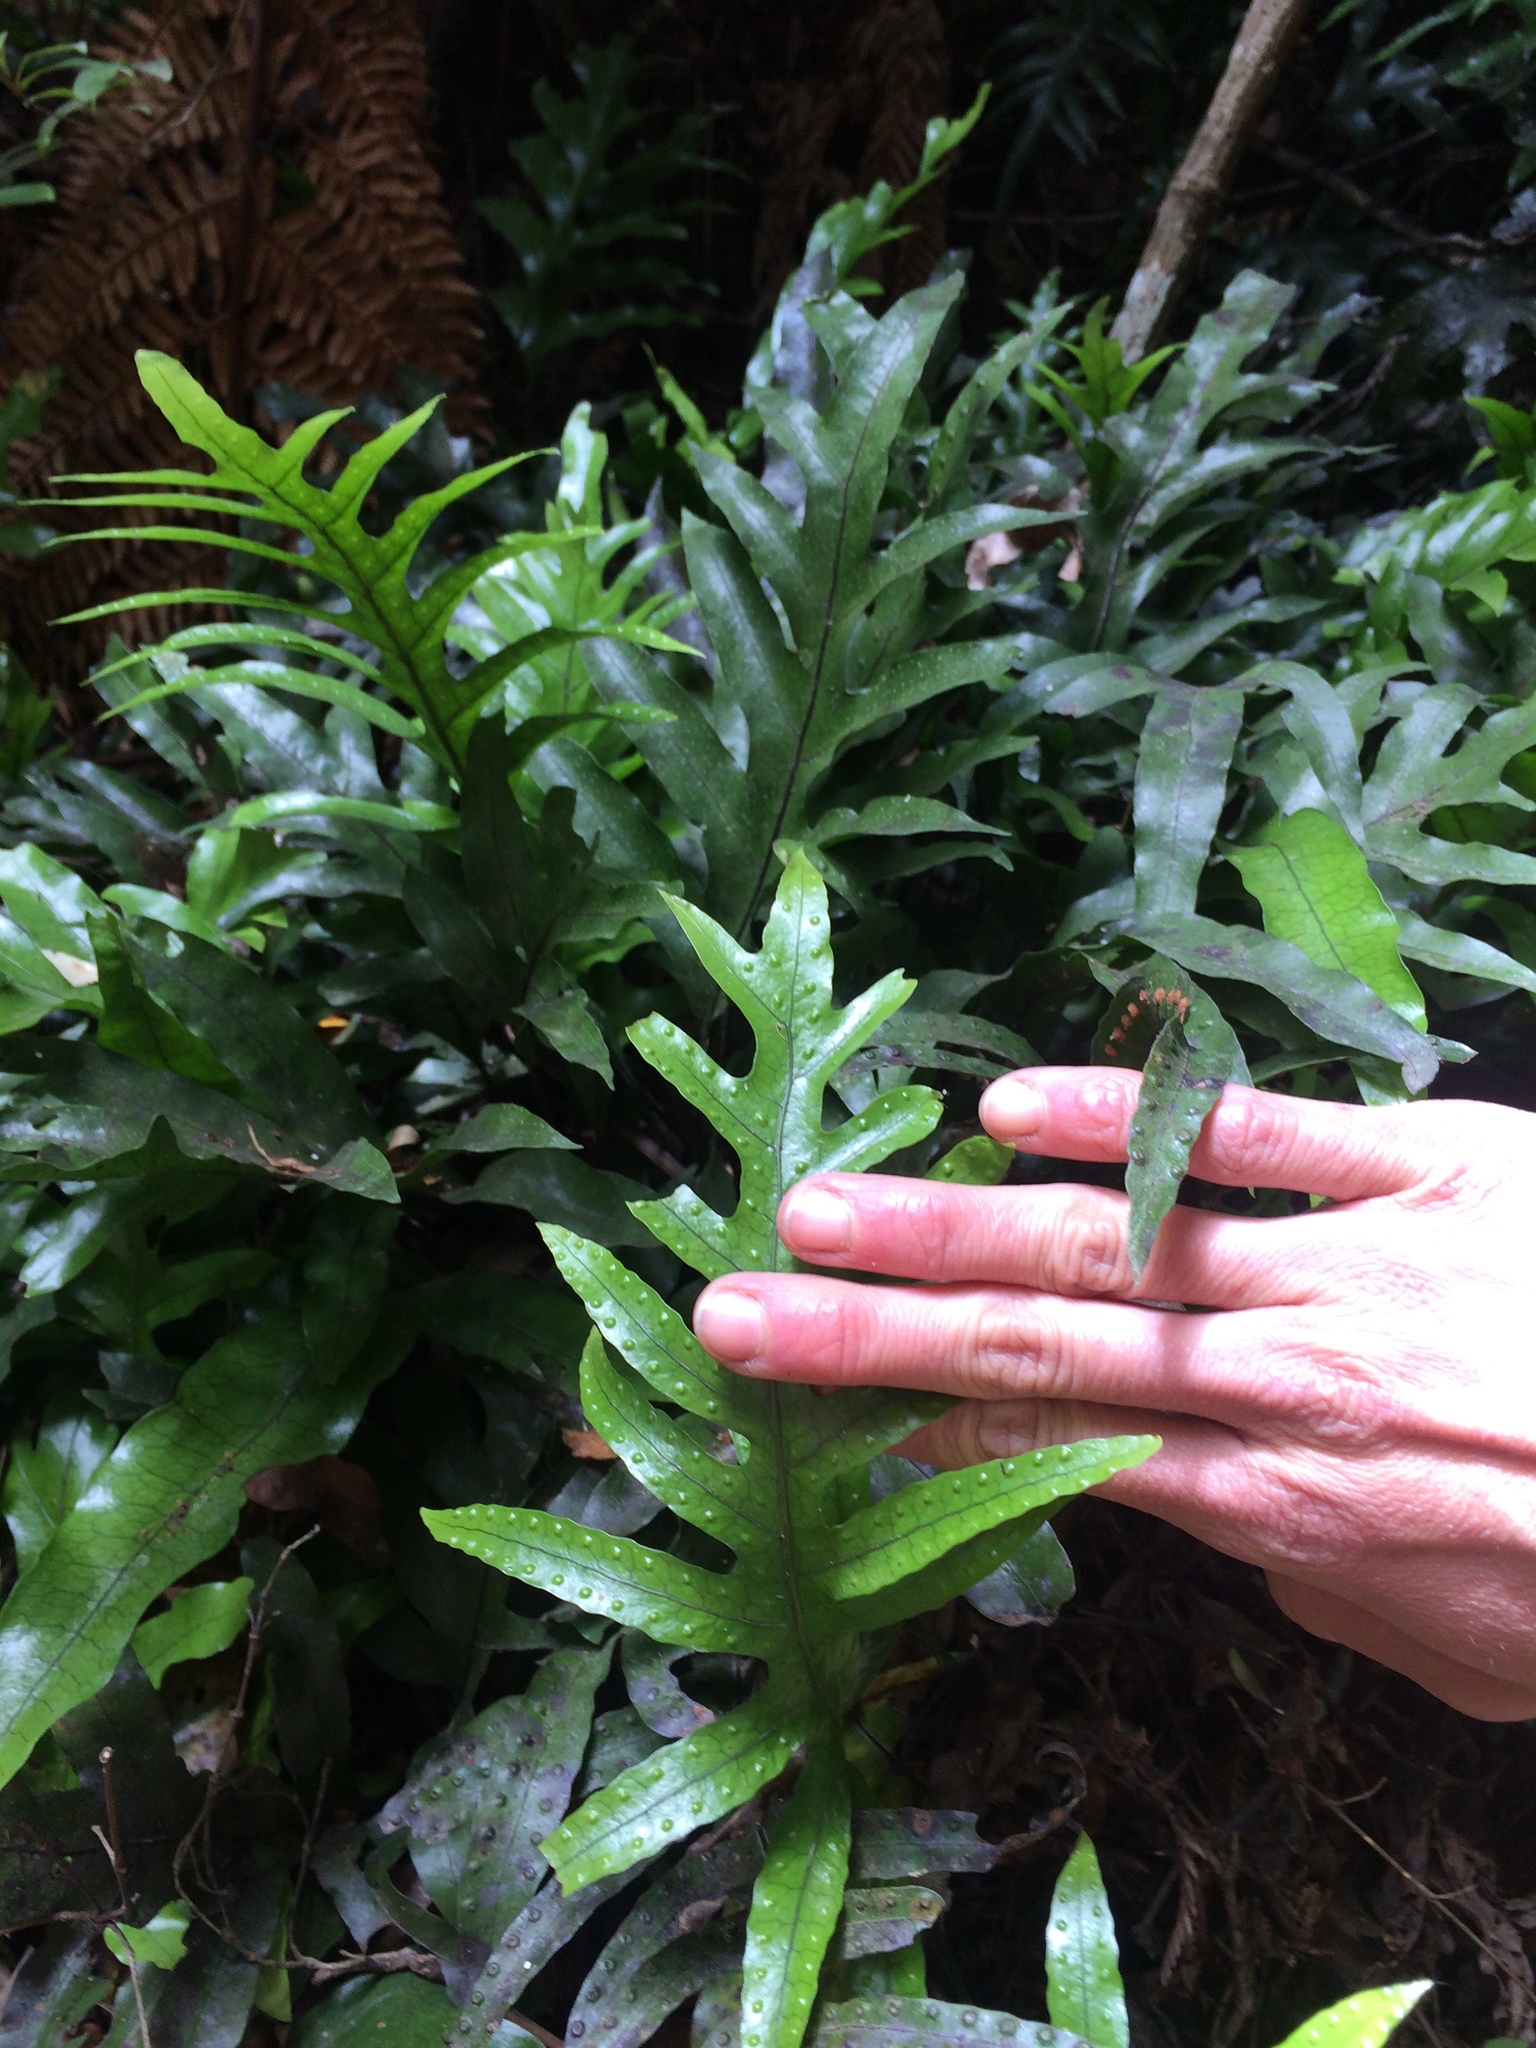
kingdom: Plantae
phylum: Tracheophyta
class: Polypodiopsida
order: Polypodiales
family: Polypodiaceae
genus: Lecanopteris
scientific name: Lecanopteris pustulata
